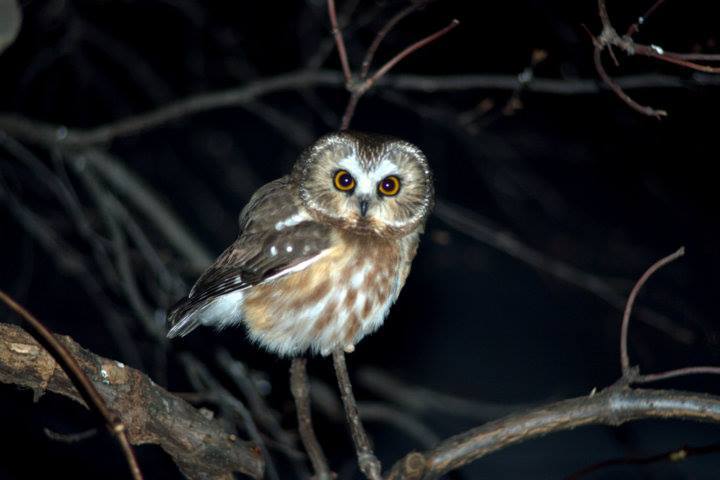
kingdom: Animalia
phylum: Chordata
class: Aves
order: Strigiformes
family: Strigidae
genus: Aegolius
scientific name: Aegolius acadicus
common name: Northern saw-whet owl
